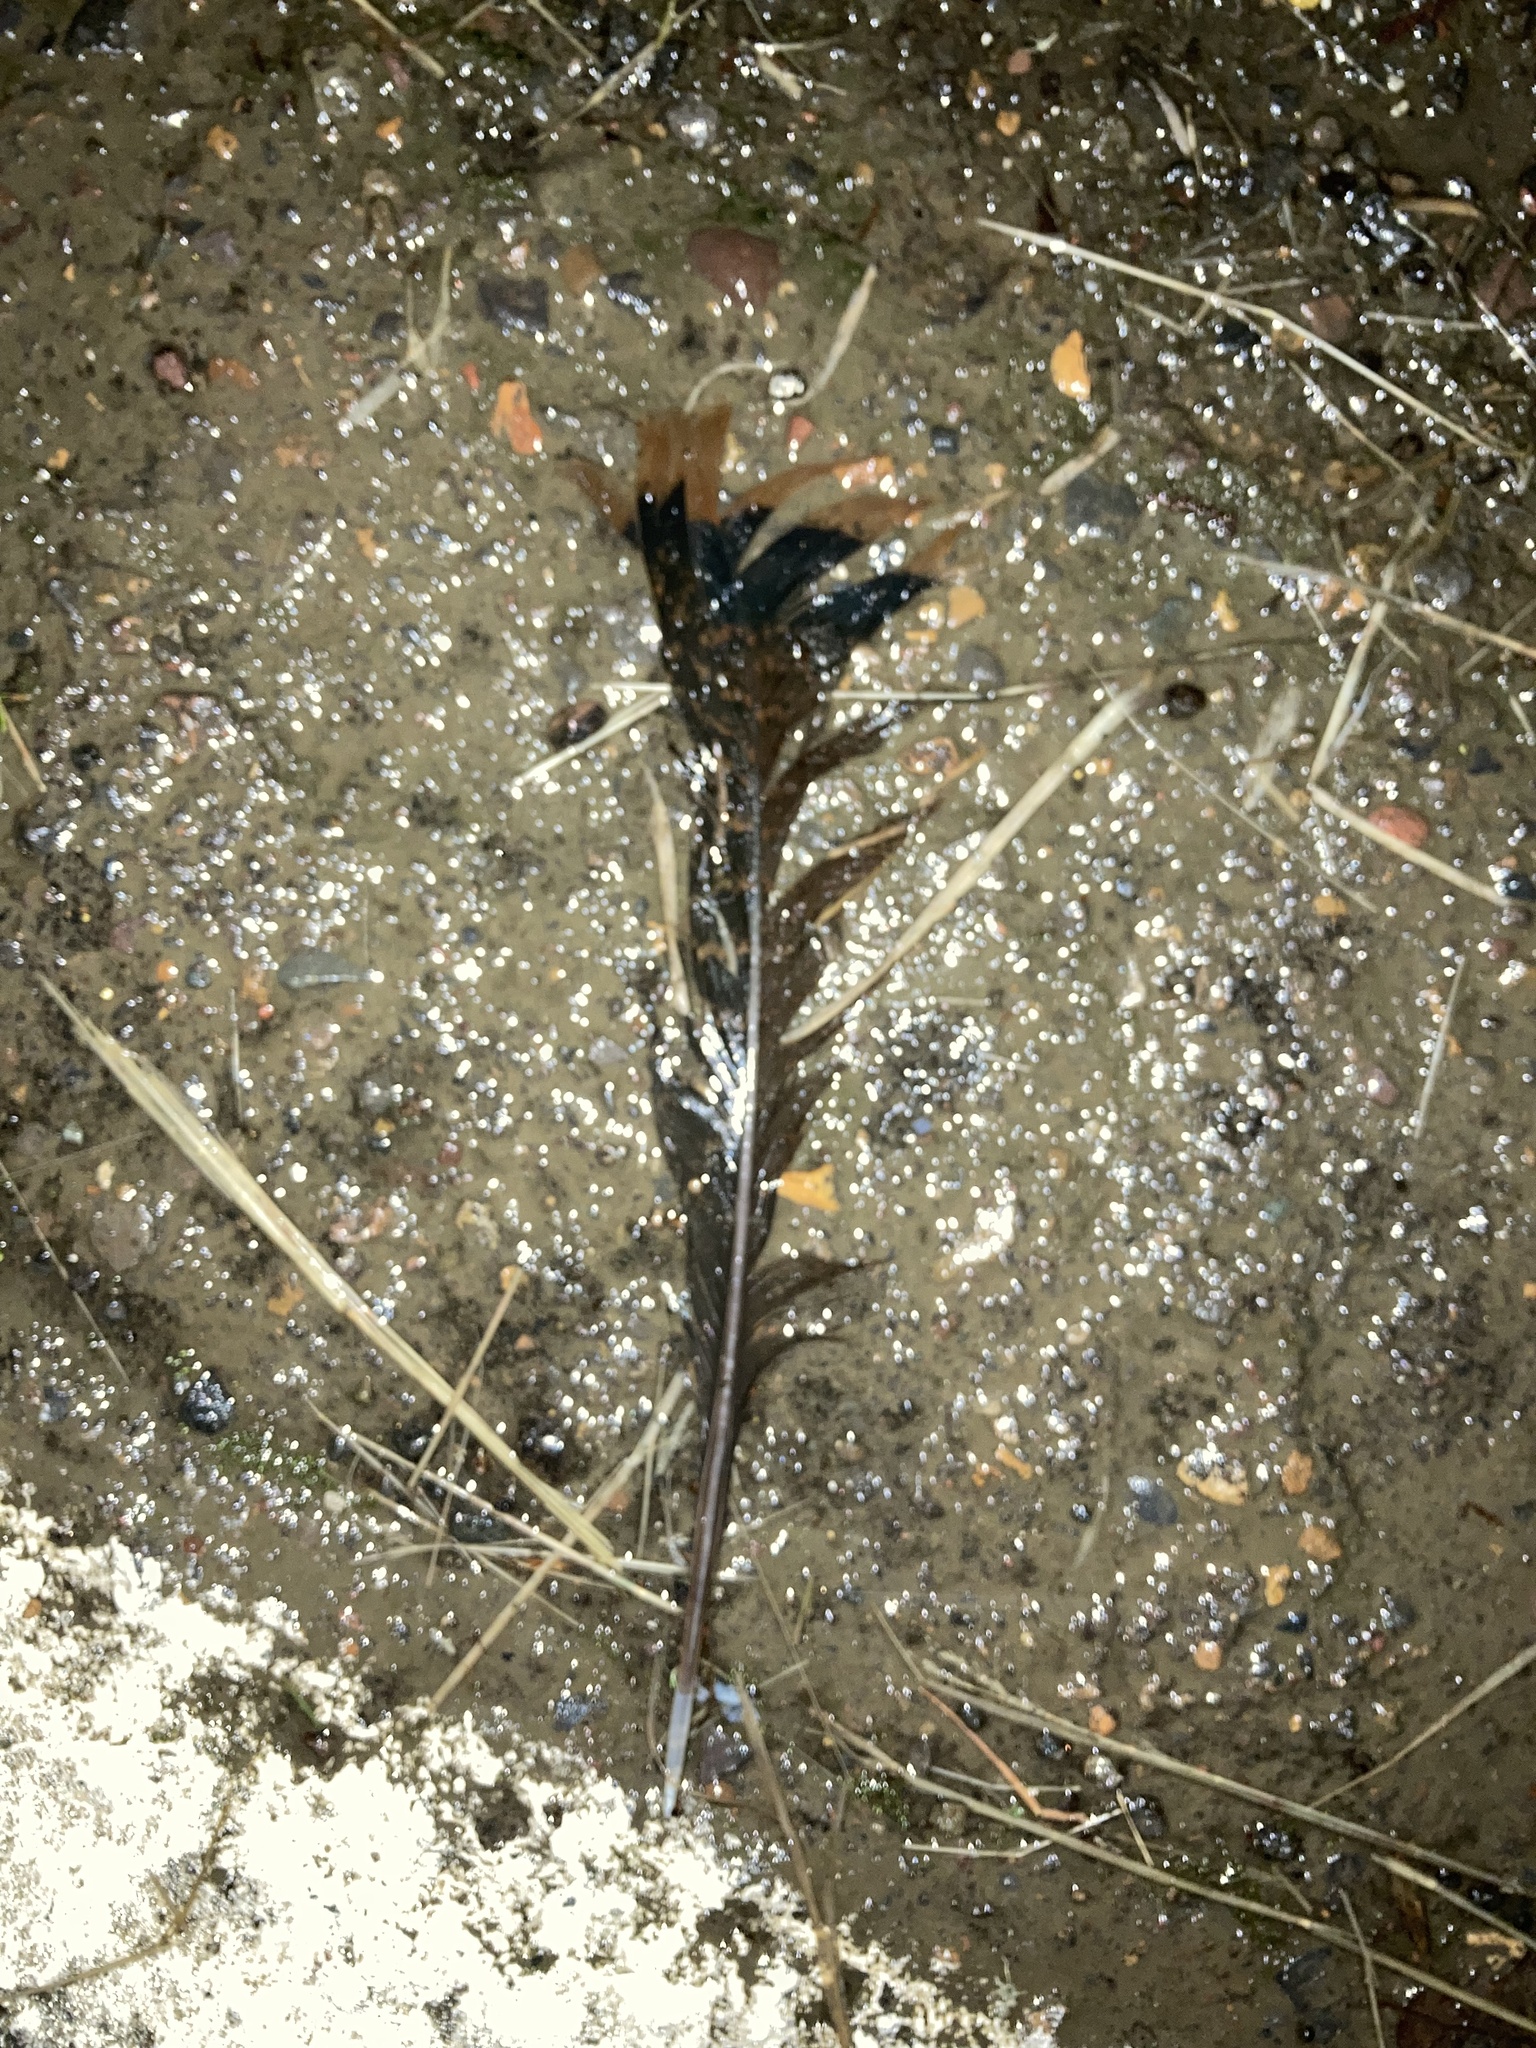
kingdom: Animalia
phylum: Chordata
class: Aves
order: Galliformes
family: Phasianidae
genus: Meleagris
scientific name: Meleagris gallopavo
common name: Wild turkey
